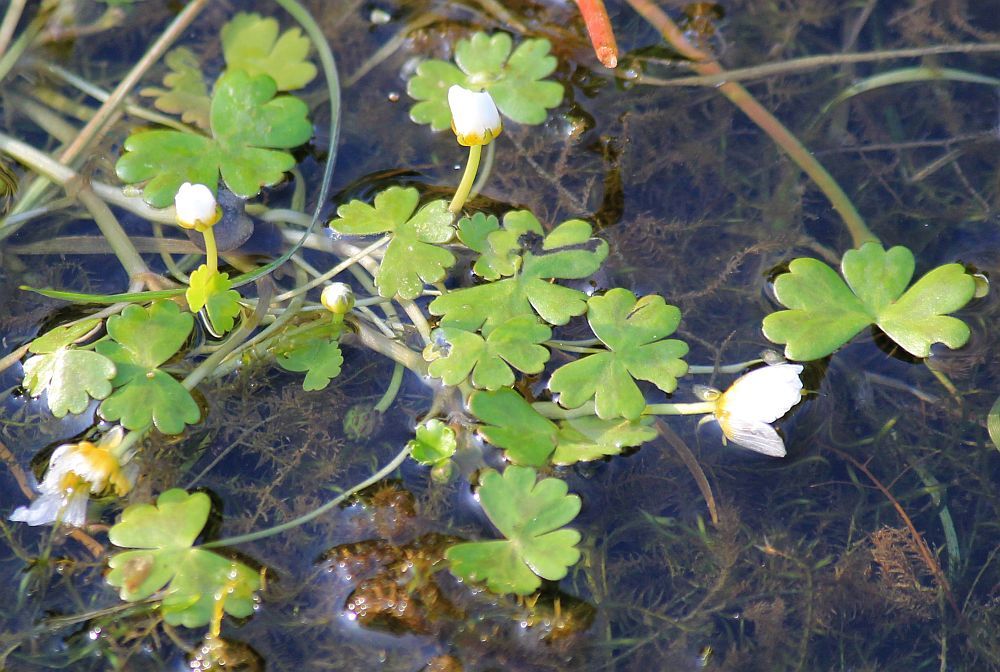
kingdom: Plantae
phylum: Tracheophyta
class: Magnoliopsida
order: Ranunculales
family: Ranunculaceae
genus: Ranunculus
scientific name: Ranunculus aquatilis
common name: Common water-crowfoot
